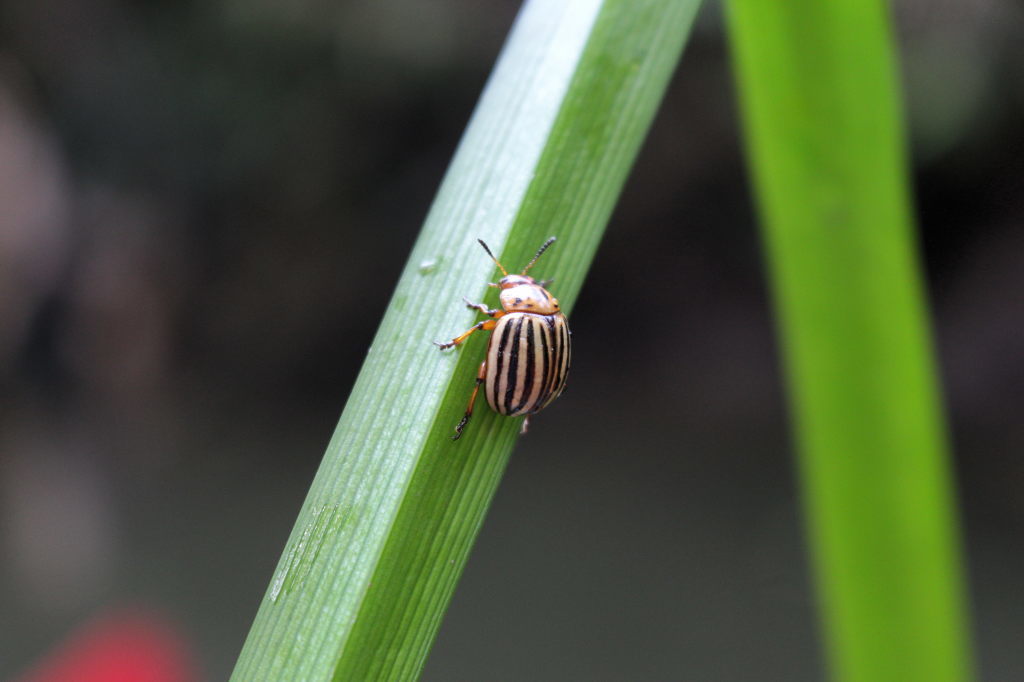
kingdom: Animalia
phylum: Arthropoda
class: Insecta
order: Coleoptera
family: Chrysomelidae
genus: Leptinotarsa
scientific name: Leptinotarsa decemlineata
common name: Colorado potato beetle
